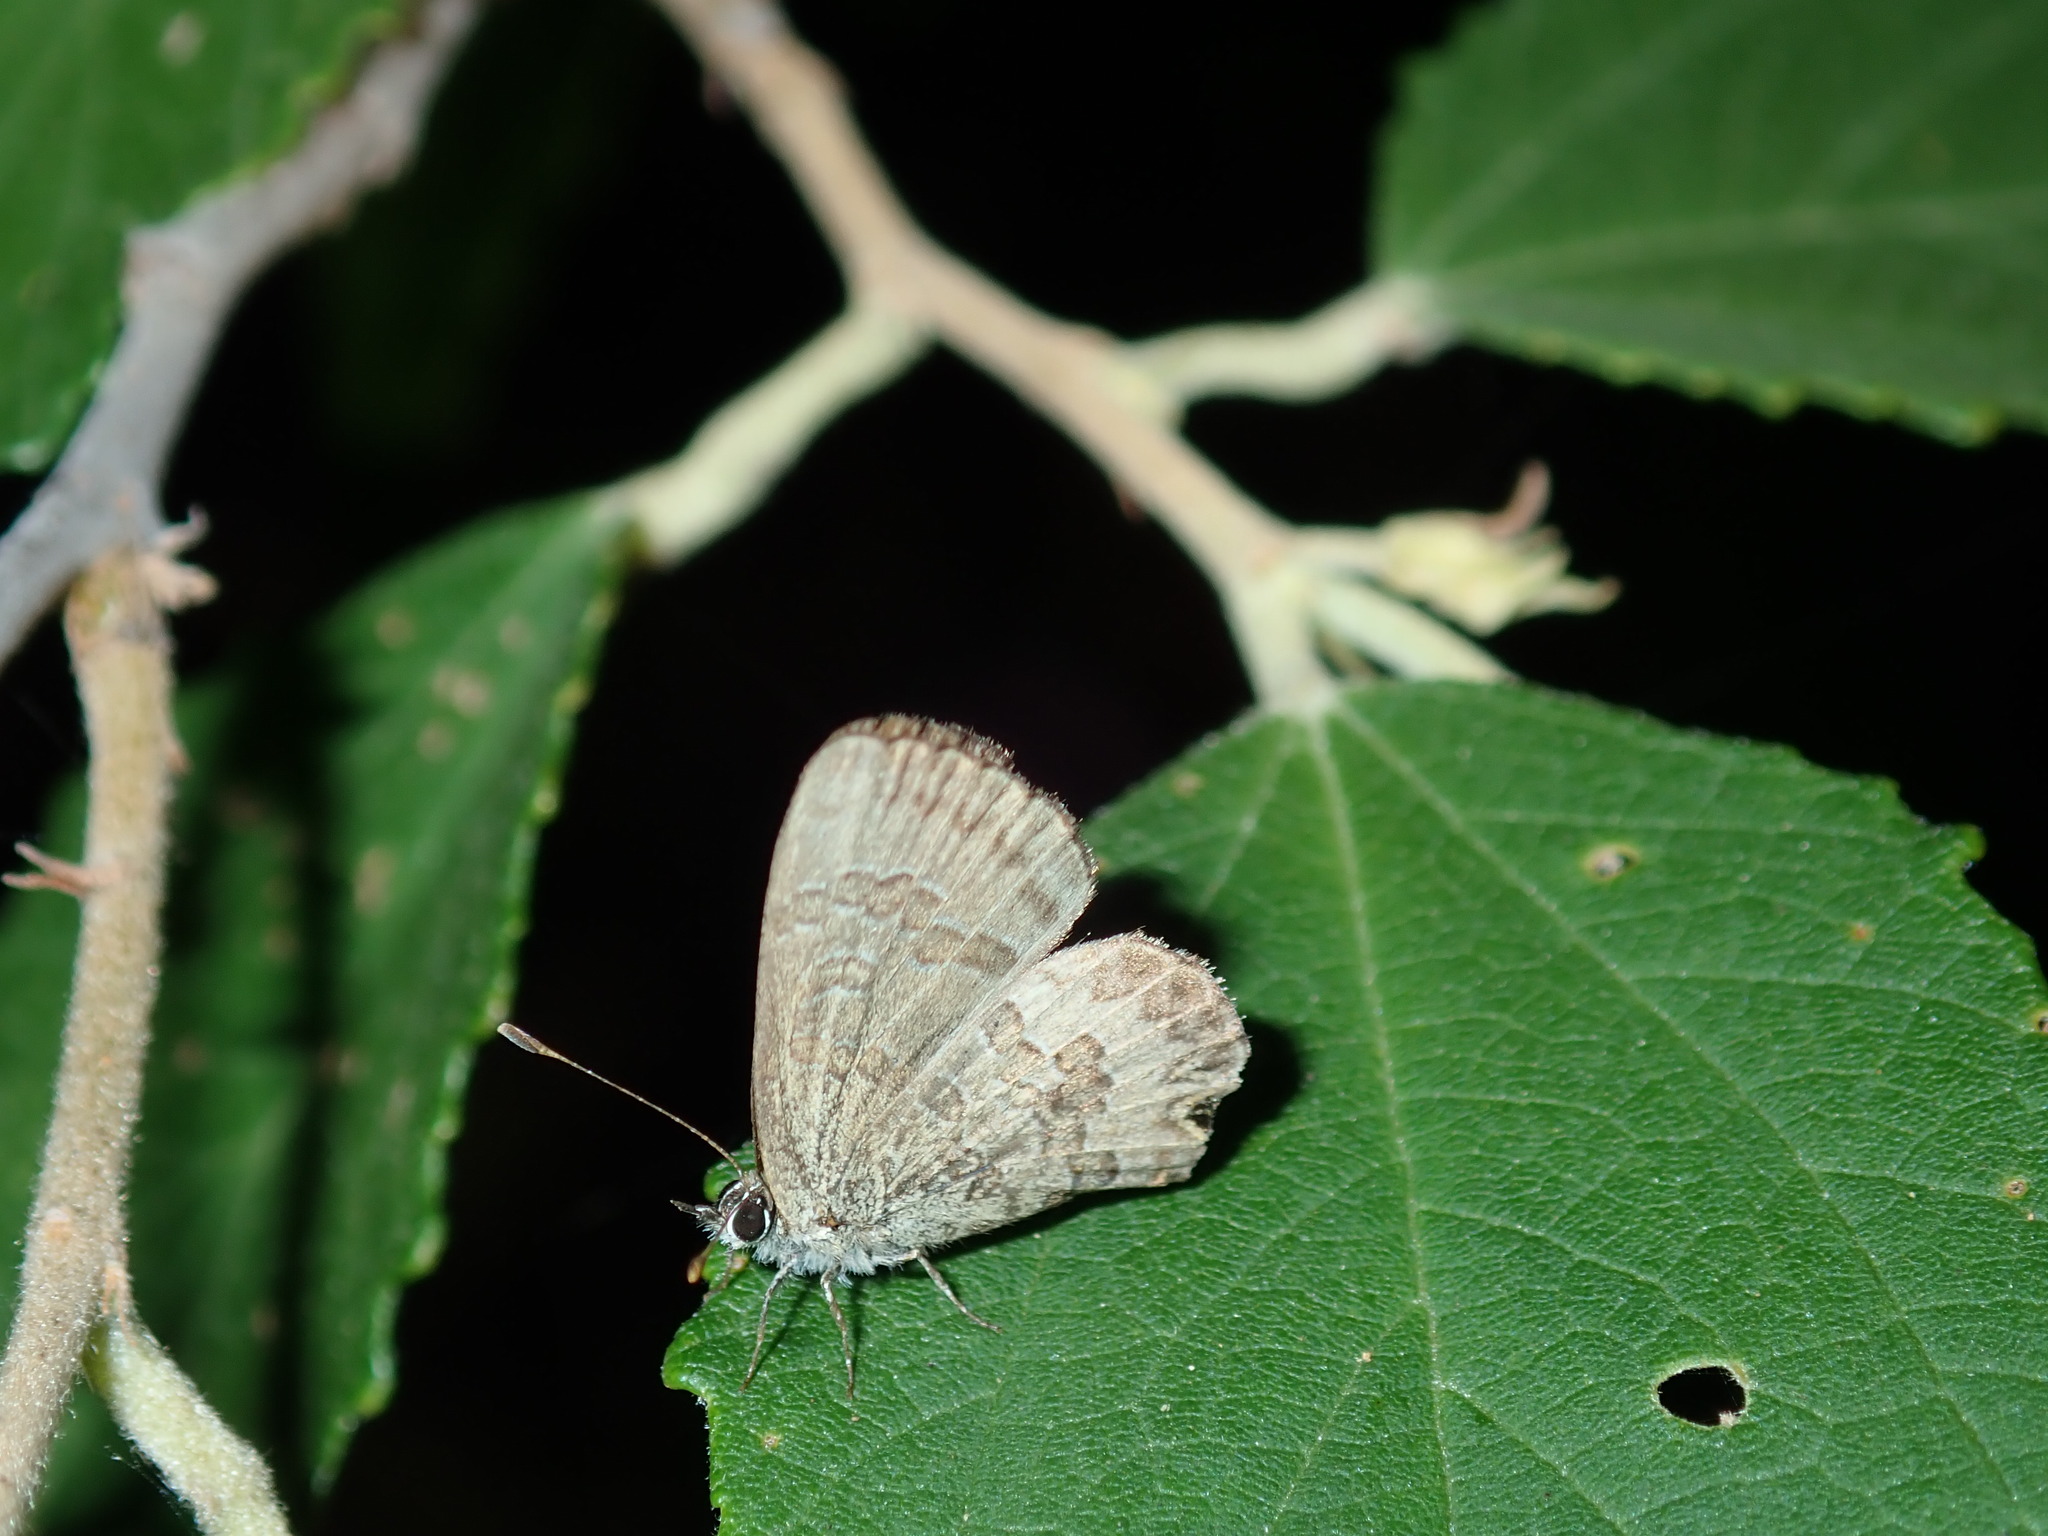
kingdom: Animalia
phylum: Arthropoda
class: Insecta
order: Lepidoptera
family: Lycaenidae
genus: Prosotas
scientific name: Prosotas felderi
